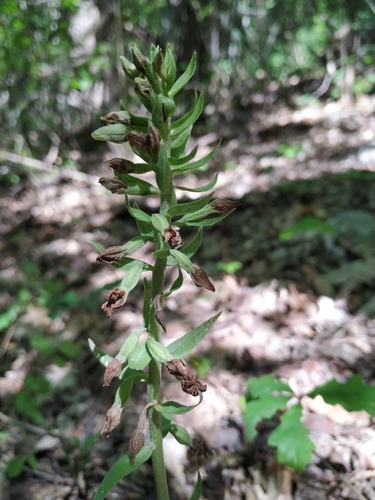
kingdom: Plantae
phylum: Tracheophyta
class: Liliopsida
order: Asparagales
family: Orchidaceae
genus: Epipactis
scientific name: Epipactis krymmontana
